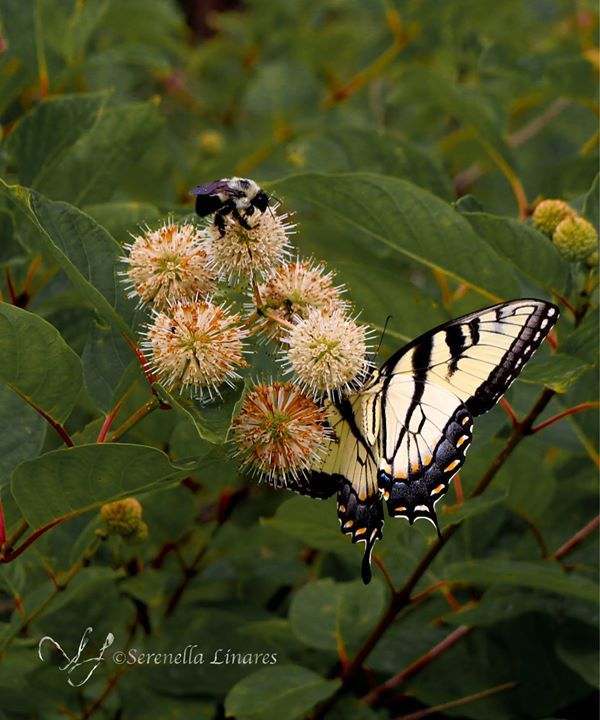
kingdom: Animalia
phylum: Arthropoda
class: Insecta
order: Lepidoptera
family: Papilionidae
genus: Papilio
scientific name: Papilio glaucus
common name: Tiger swallowtail
